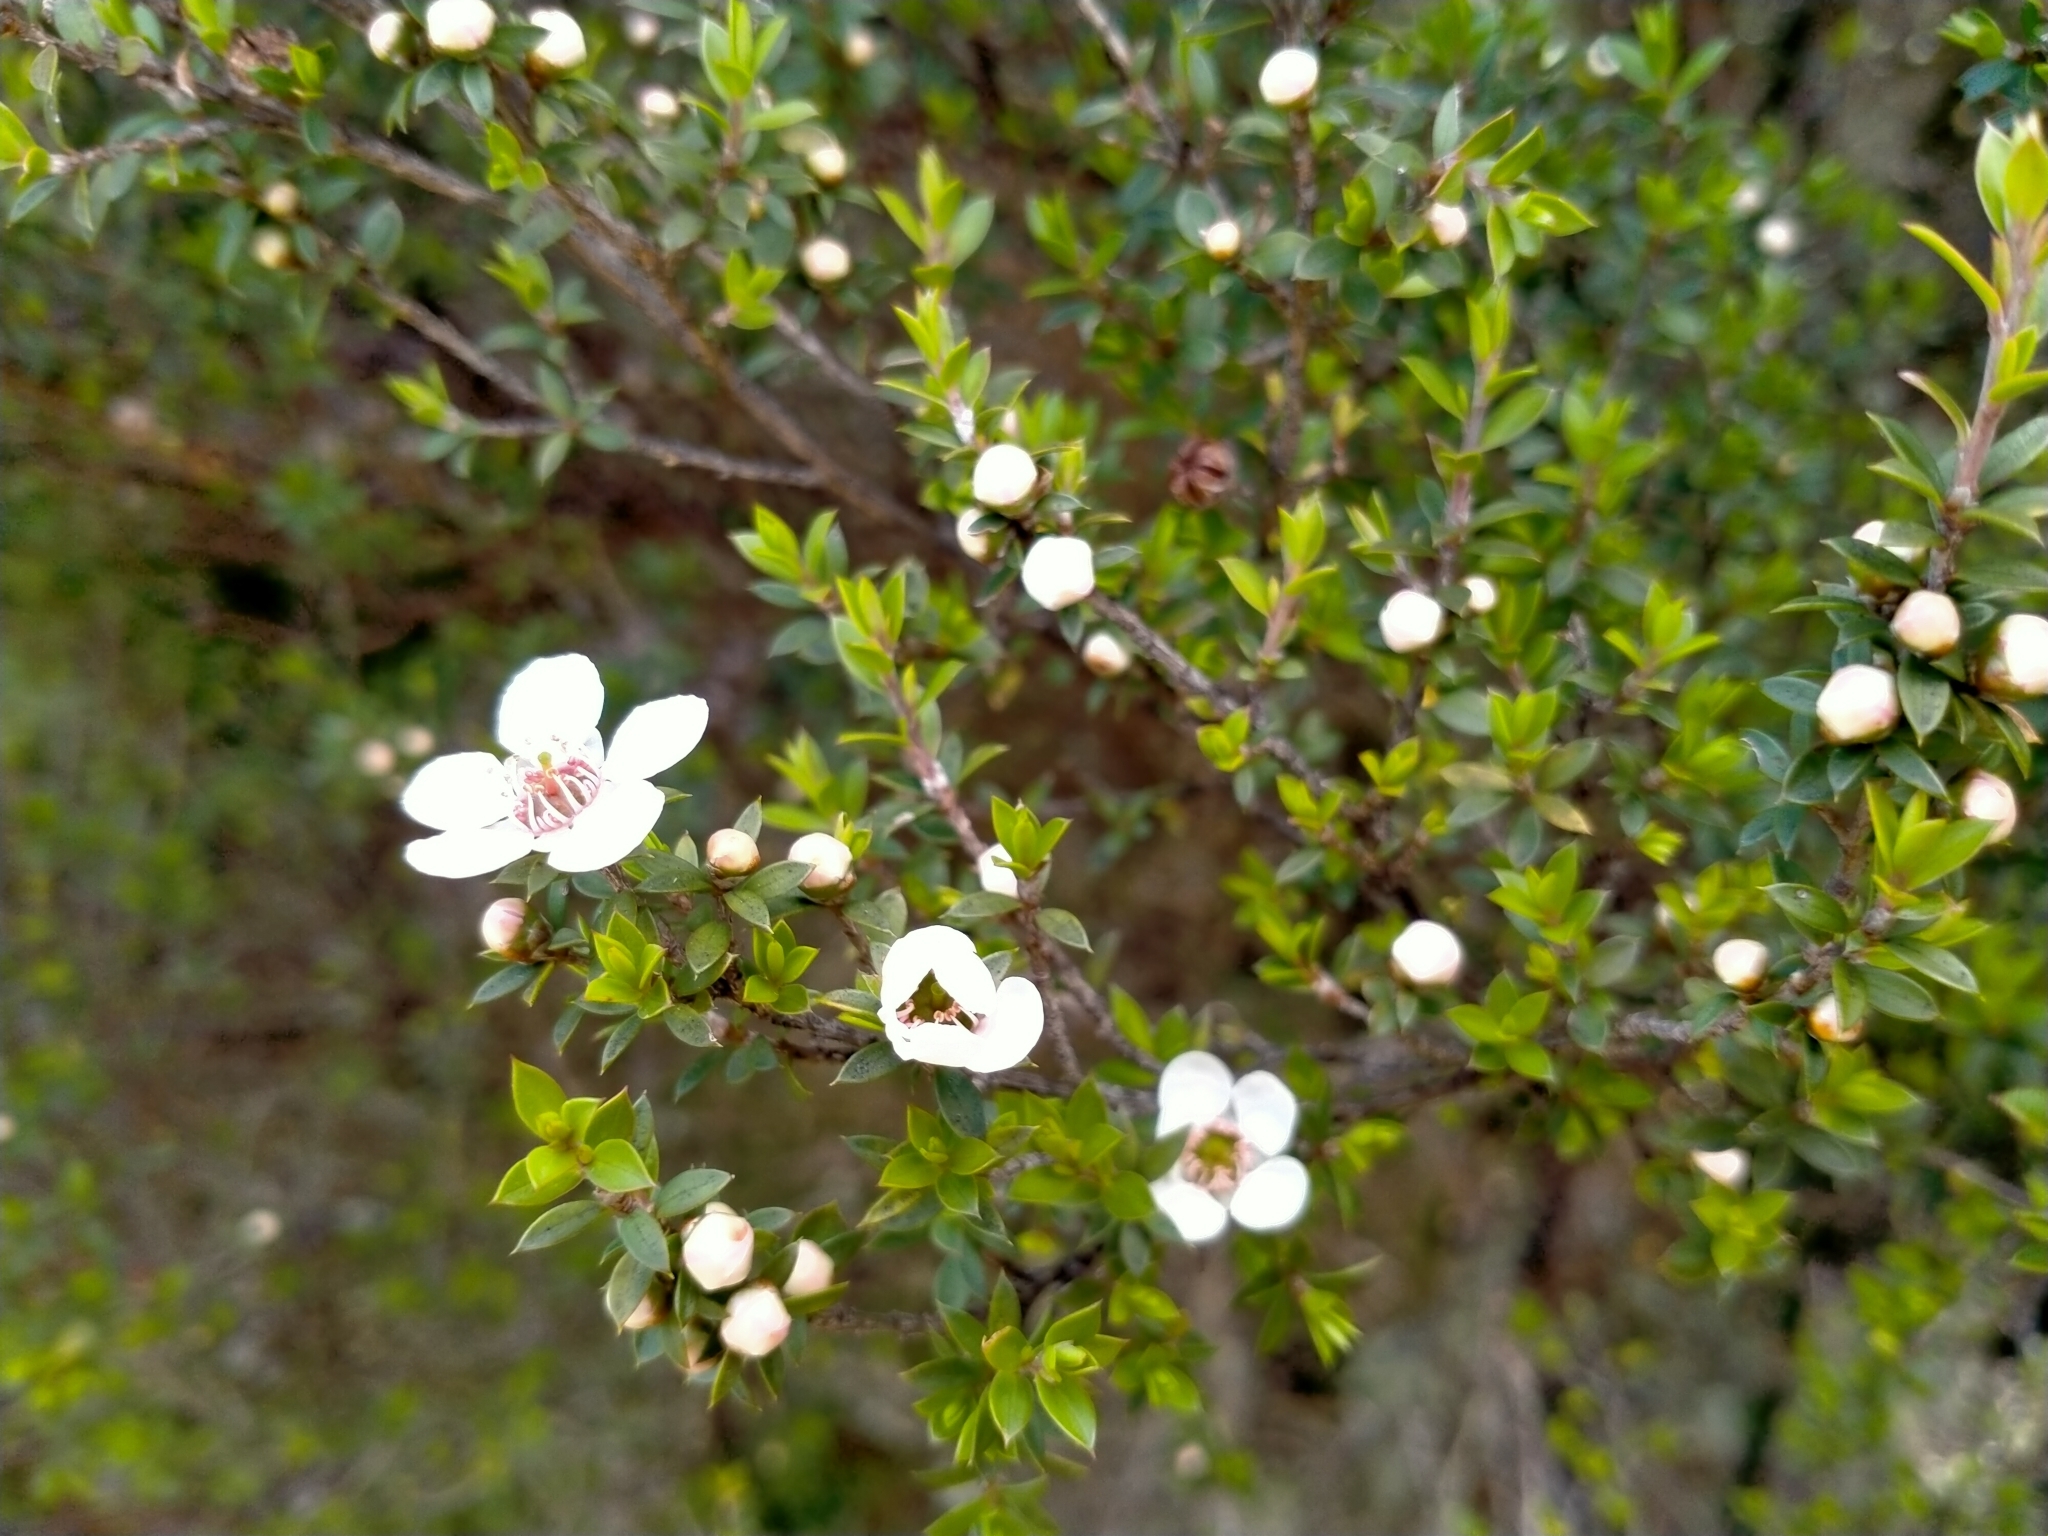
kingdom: Plantae
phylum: Tracheophyta
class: Magnoliopsida
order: Myrtales
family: Myrtaceae
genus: Leptospermum
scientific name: Leptospermum scoparium
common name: Broom tea-tree
